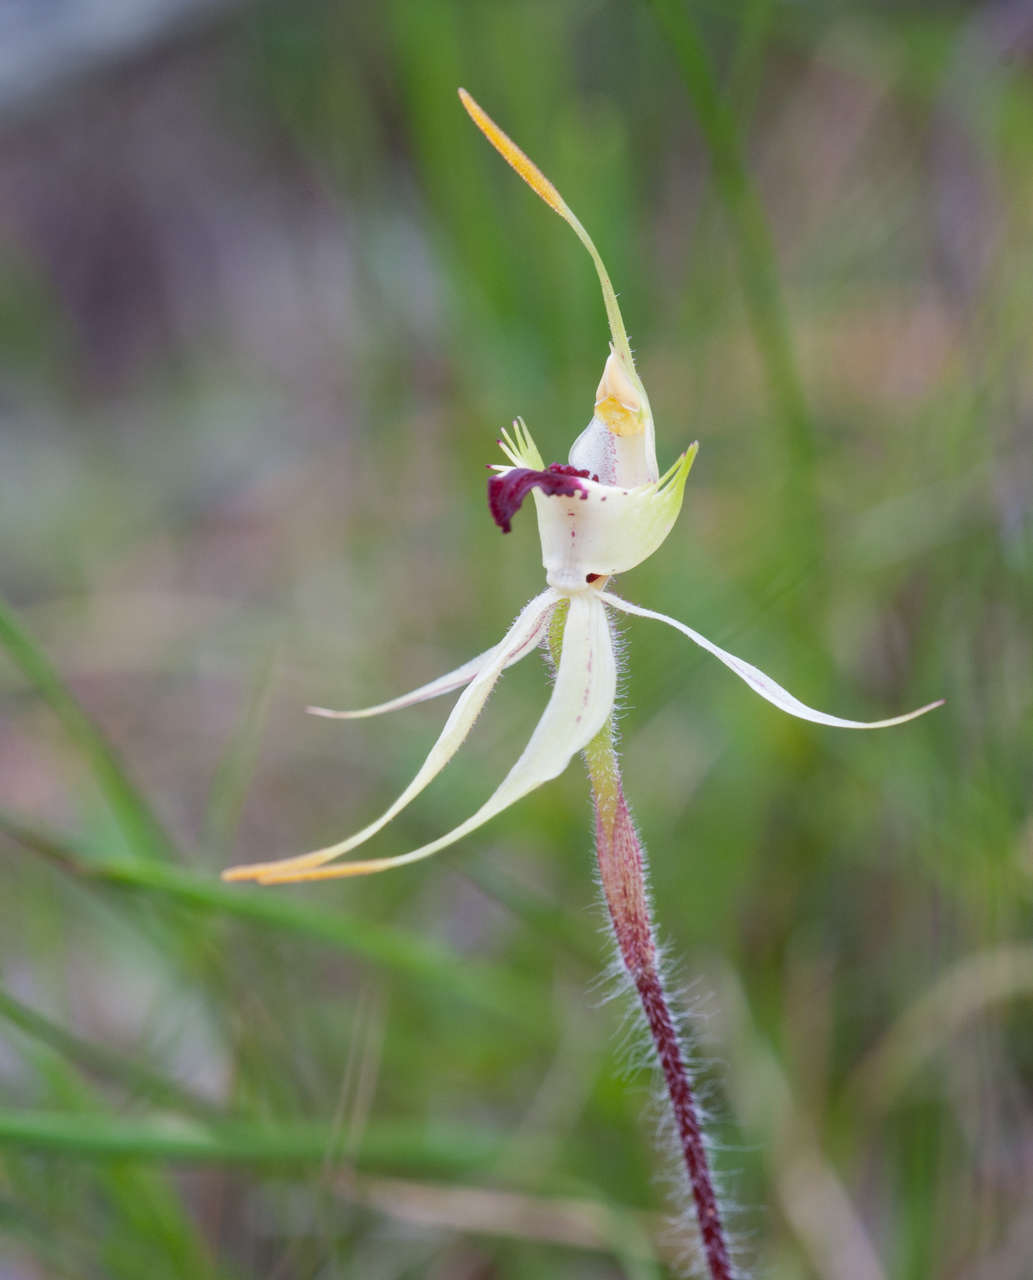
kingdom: Plantae
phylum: Tracheophyta
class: Liliopsida
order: Asparagales
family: Orchidaceae
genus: Caladenia
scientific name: Caladenia parva
